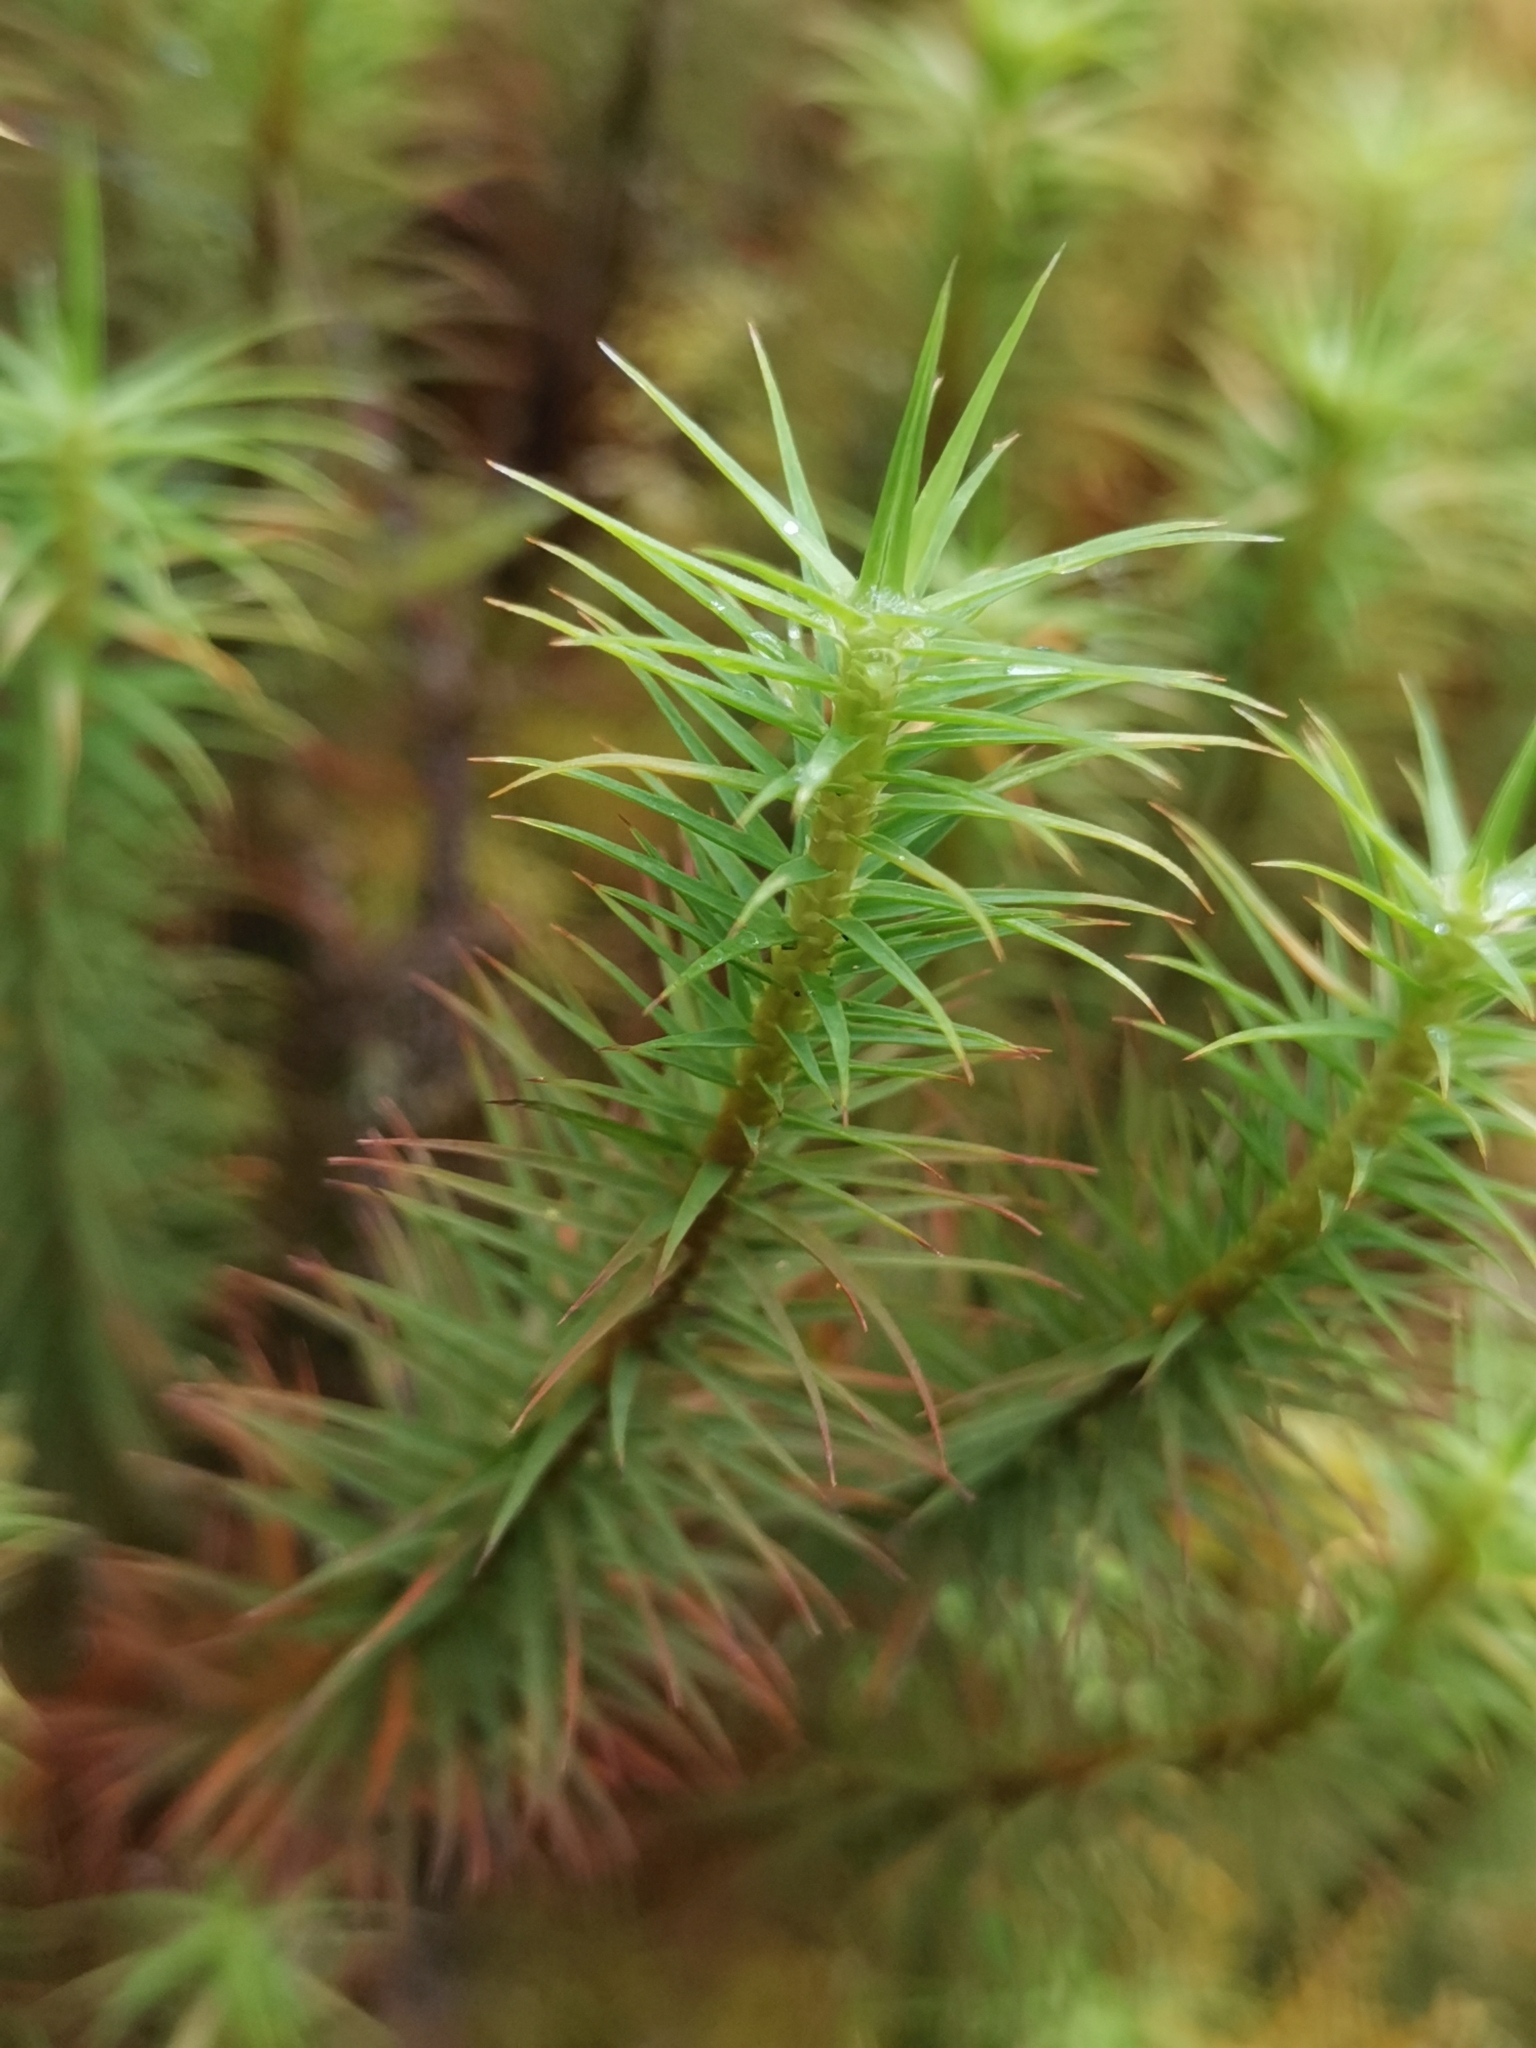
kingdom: Plantae
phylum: Bryophyta
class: Polytrichopsida
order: Polytrichales
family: Polytrichaceae
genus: Polytrichum
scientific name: Polytrichum commune
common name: Common haircap
